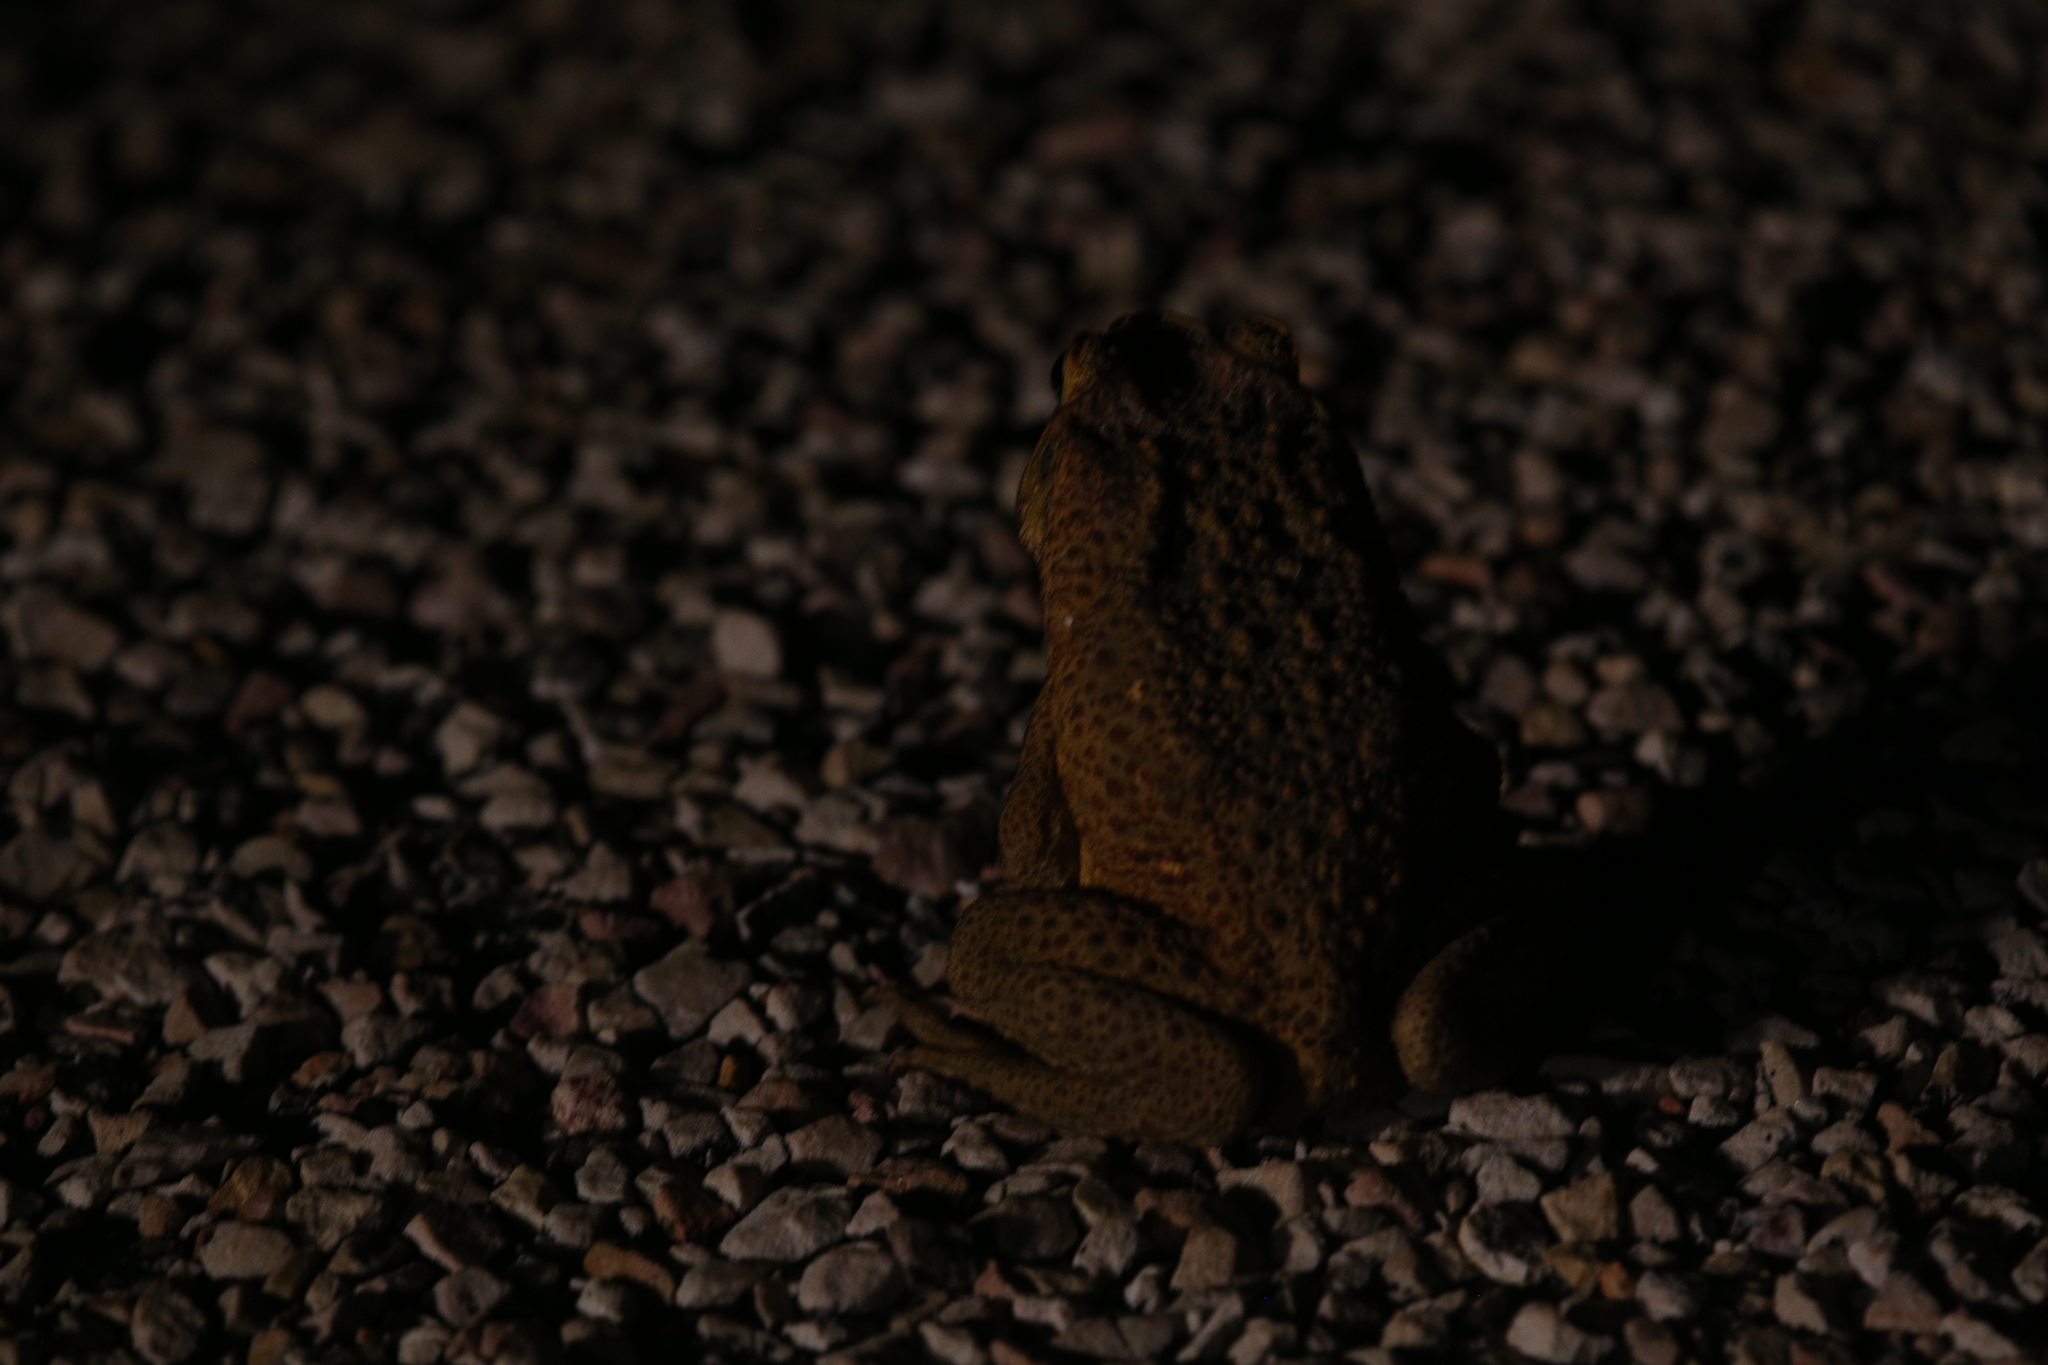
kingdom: Animalia
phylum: Chordata
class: Amphibia
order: Anura
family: Bufonidae
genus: Rhinella
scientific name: Rhinella marina
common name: Cane toad
